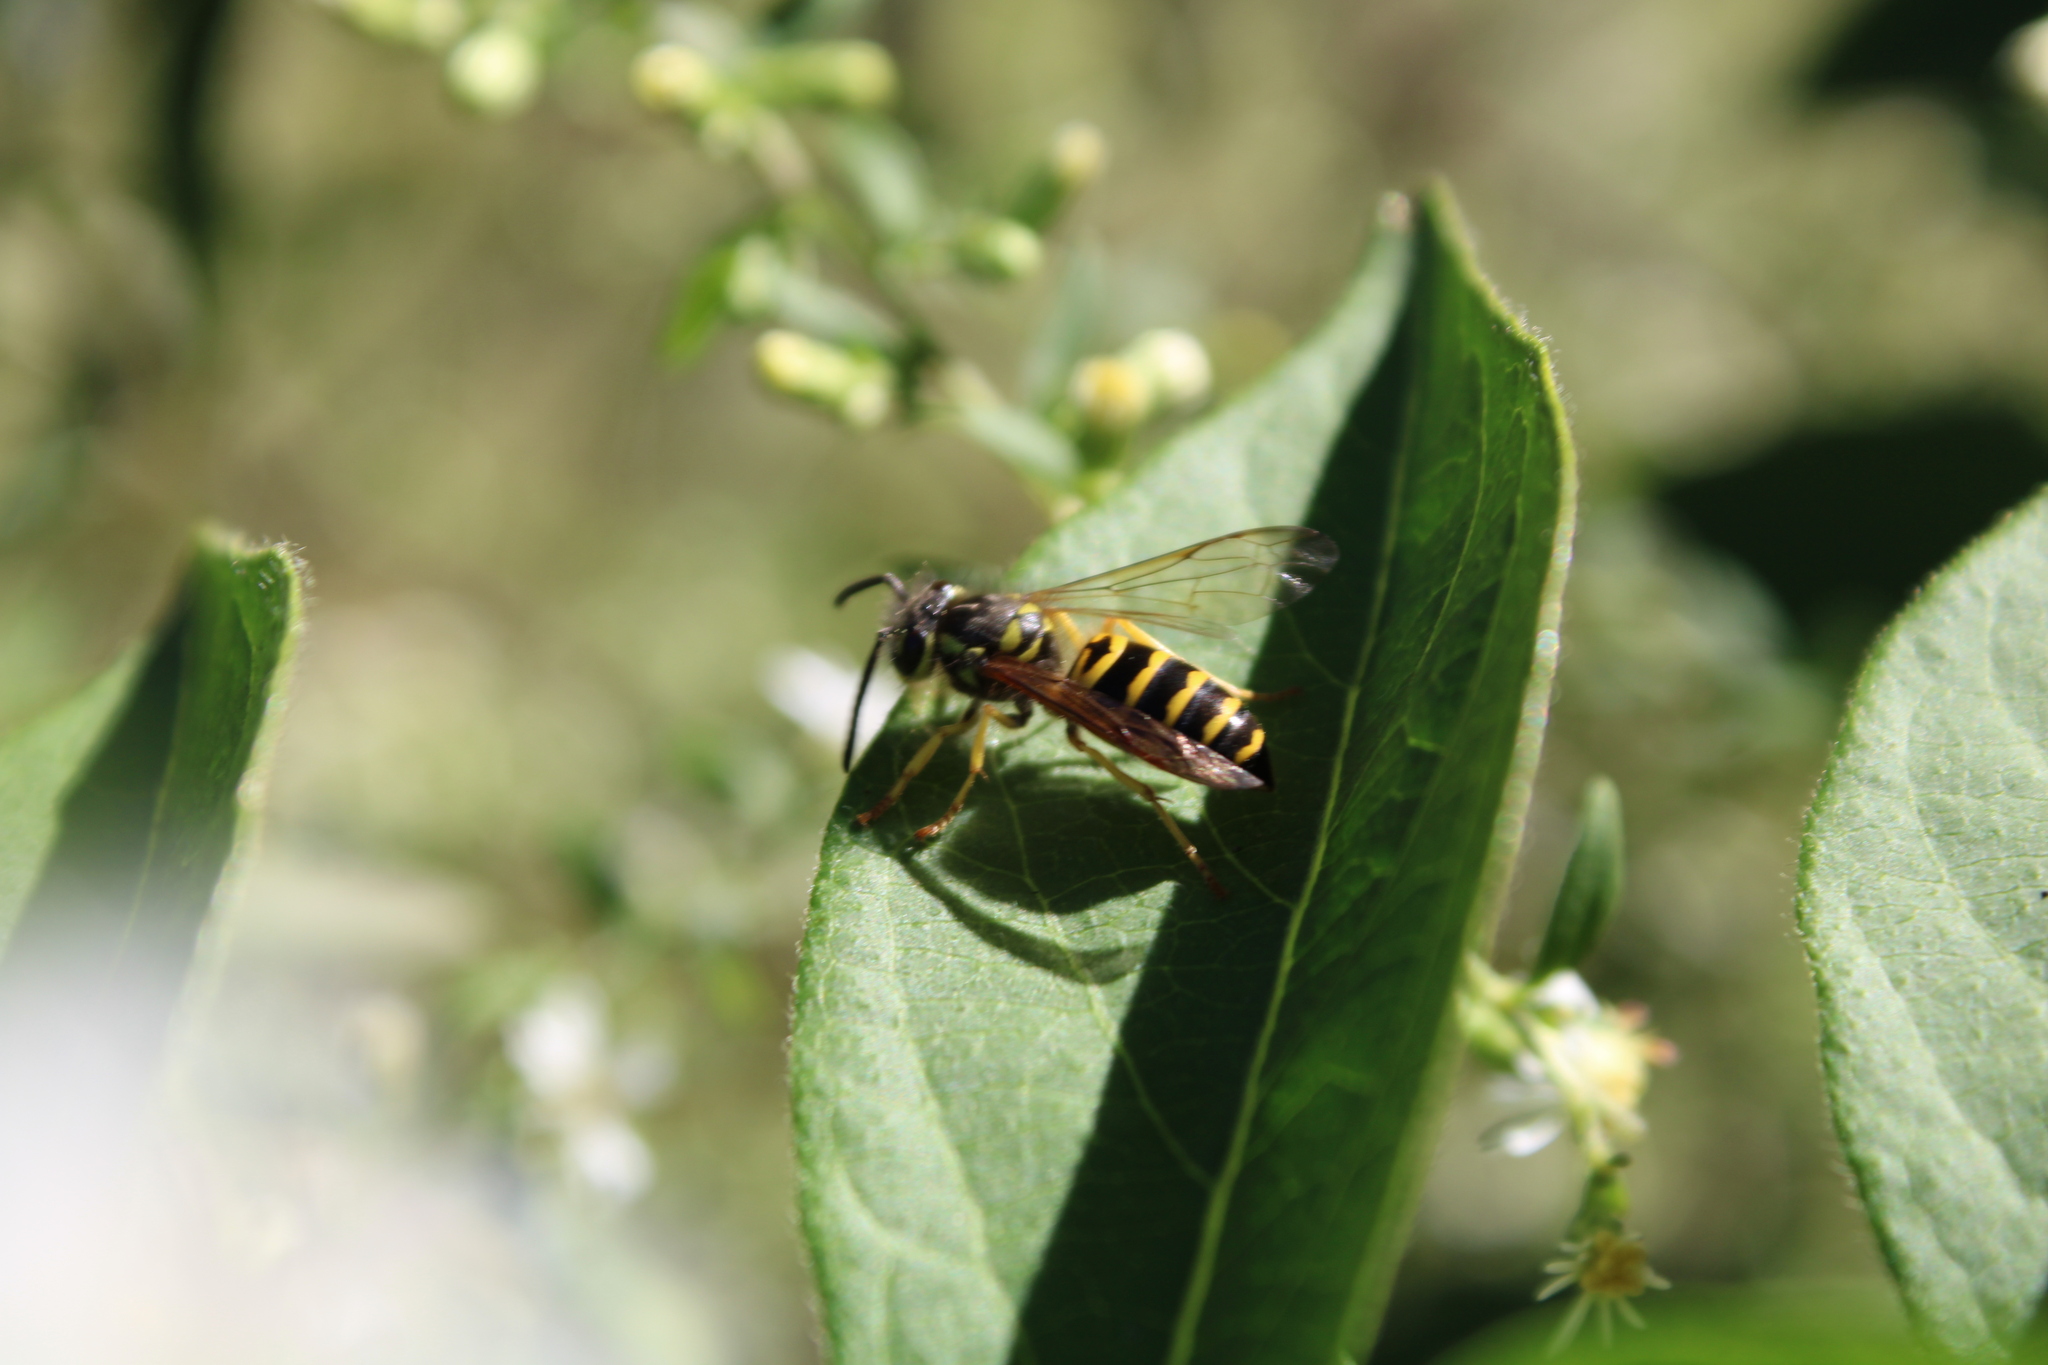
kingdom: Animalia
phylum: Arthropoda
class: Insecta
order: Hymenoptera
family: Vespidae
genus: Vespula
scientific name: Vespula maculifrons
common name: Eastern yellowjacket
